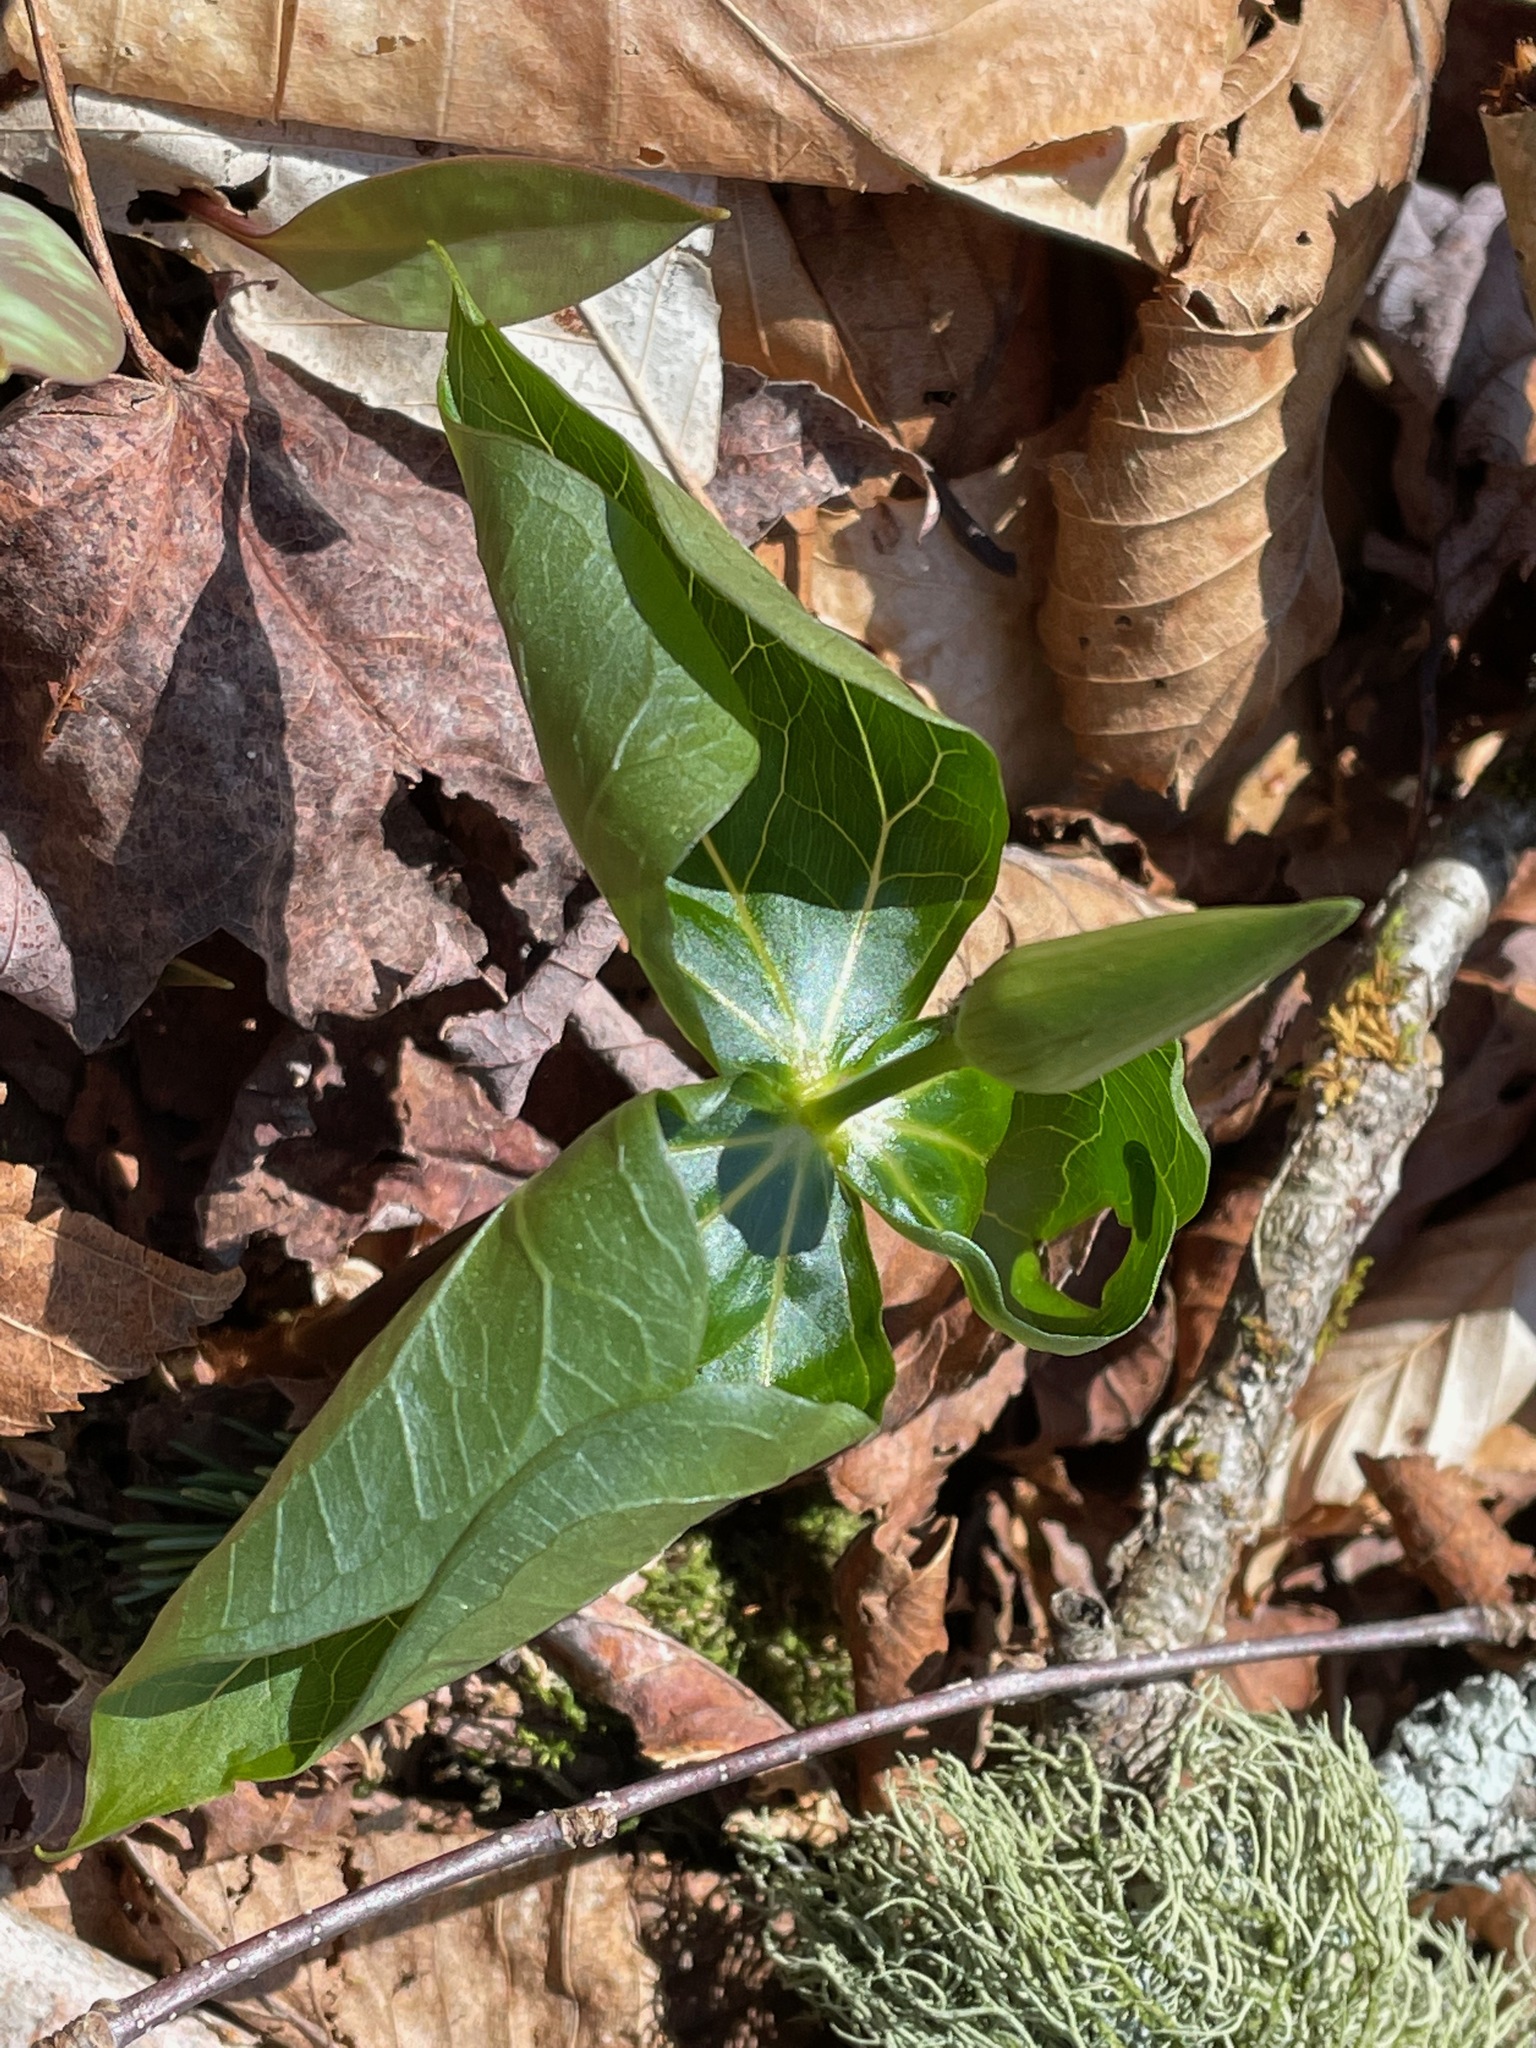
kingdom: Plantae
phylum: Tracheophyta
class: Liliopsida
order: Liliales
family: Melanthiaceae
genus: Trillium
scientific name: Trillium erectum
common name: Purple trillium
